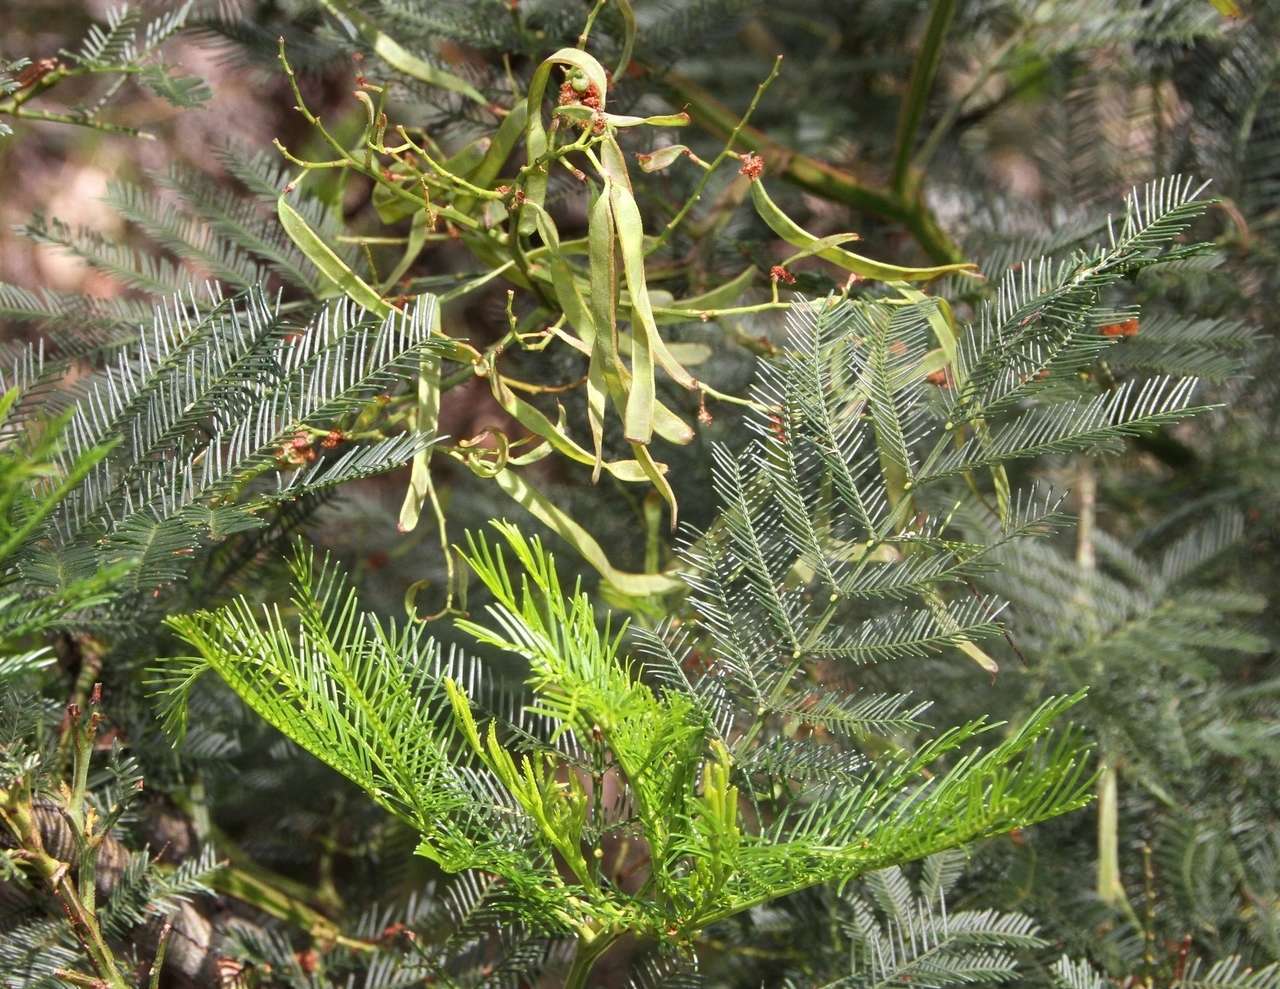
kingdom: Plantae
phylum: Tracheophyta
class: Magnoliopsida
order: Fabales
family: Fabaceae
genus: Acacia
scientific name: Acacia decurrens
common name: Green wattle
